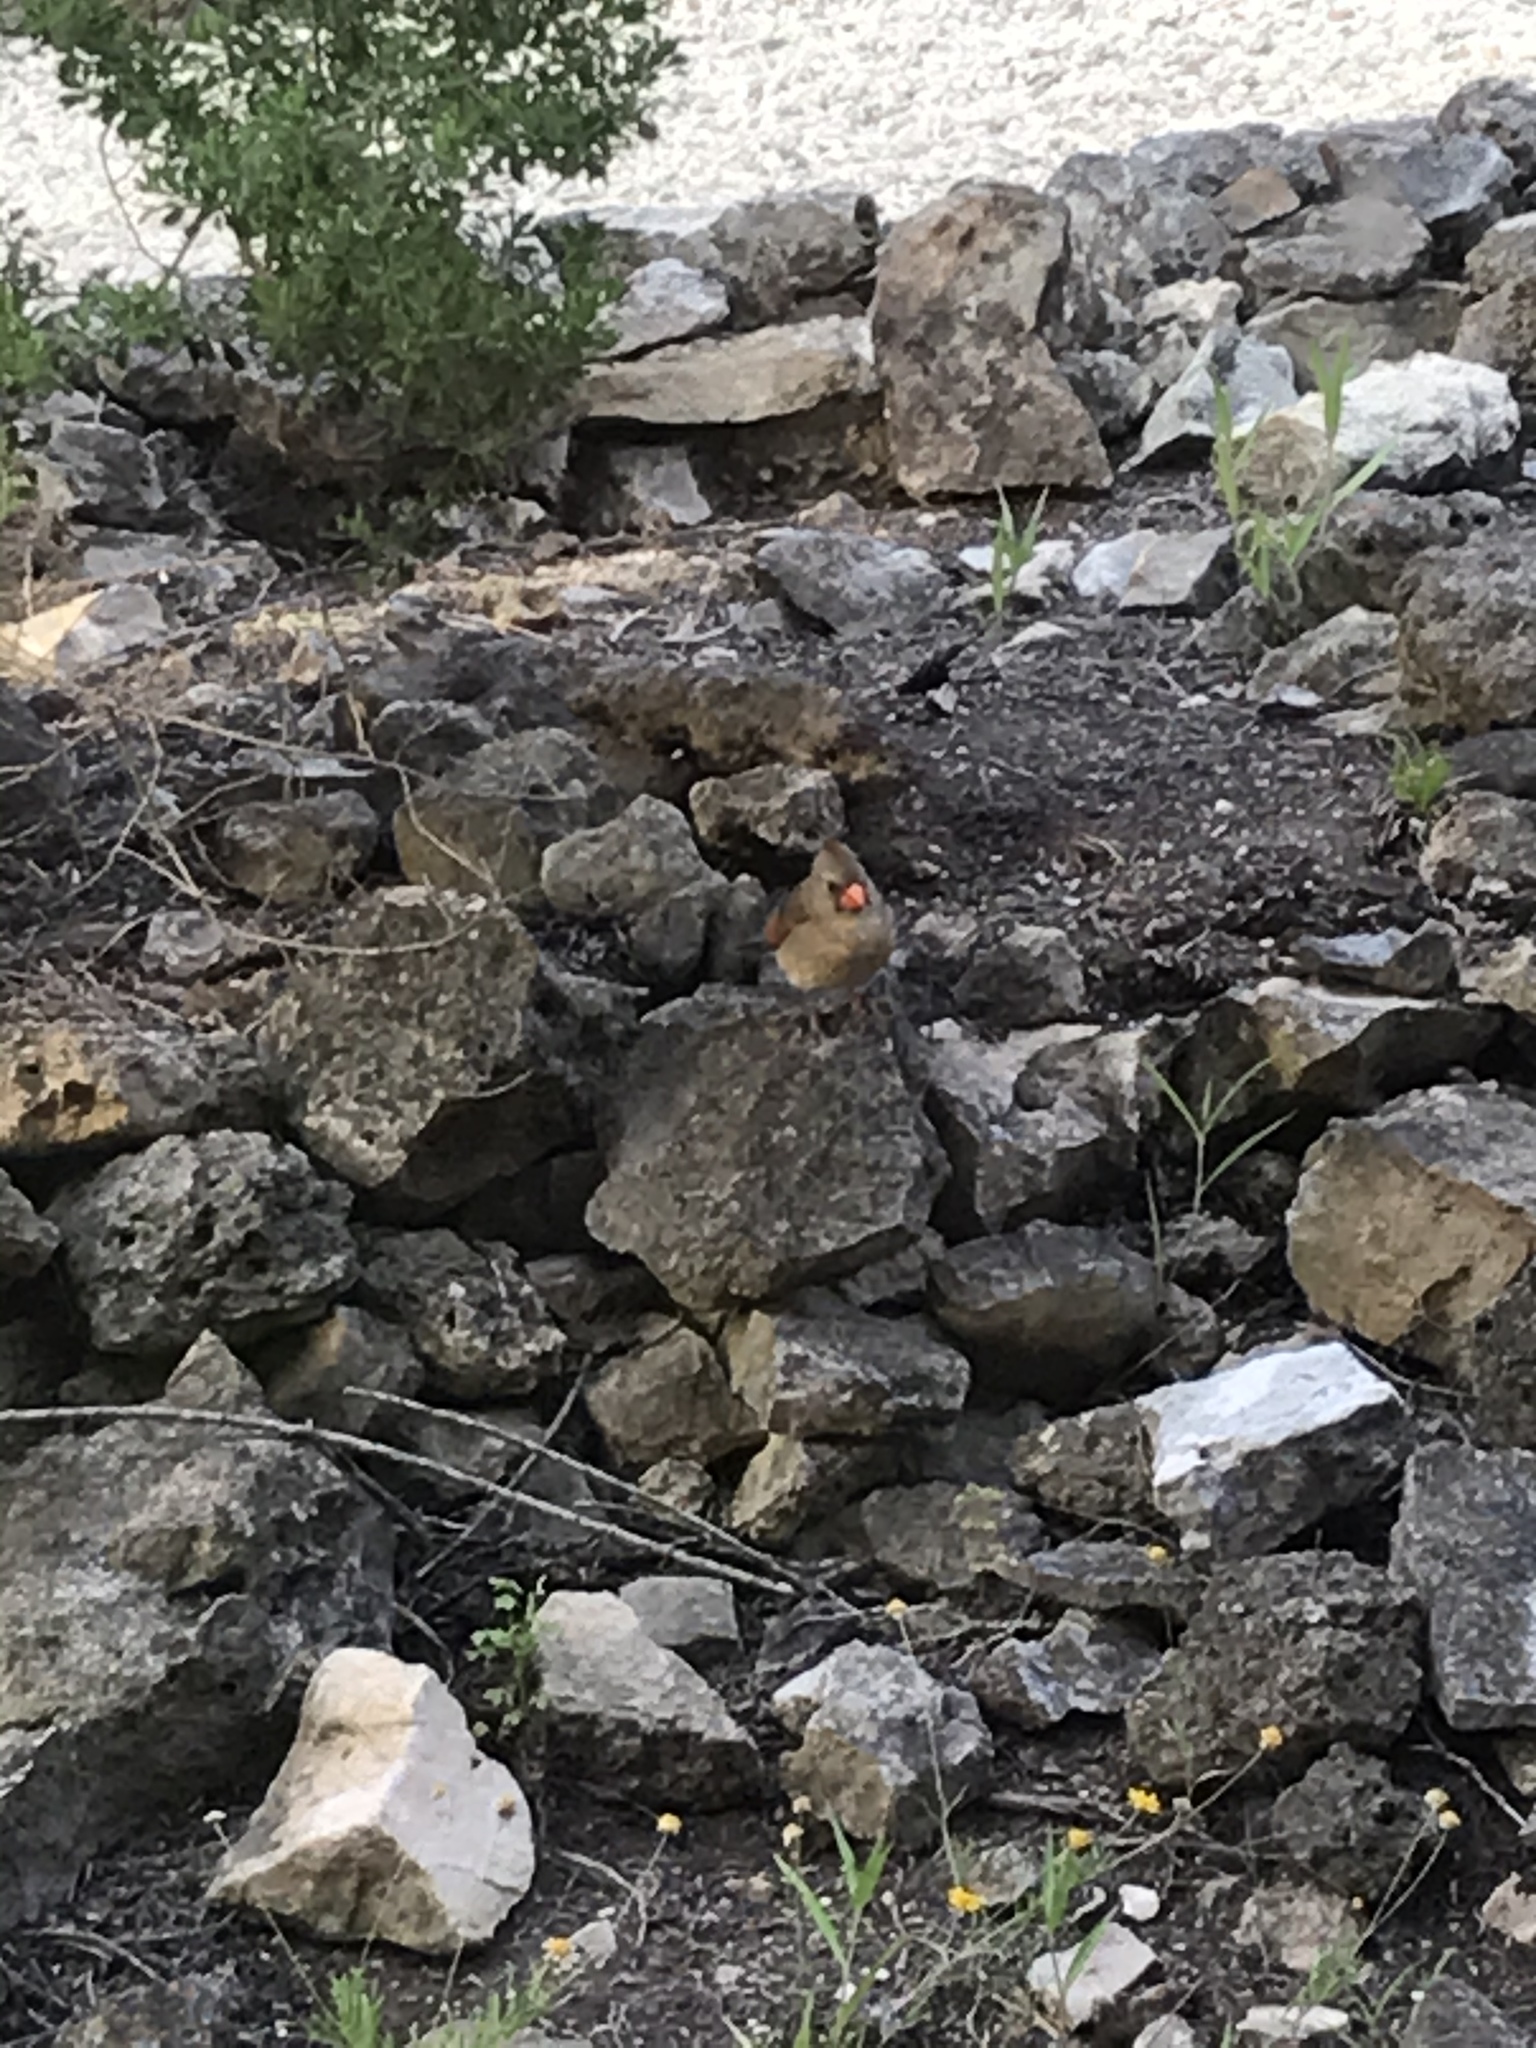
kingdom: Animalia
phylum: Chordata
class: Aves
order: Passeriformes
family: Cardinalidae
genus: Cardinalis
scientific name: Cardinalis cardinalis
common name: Northern cardinal
